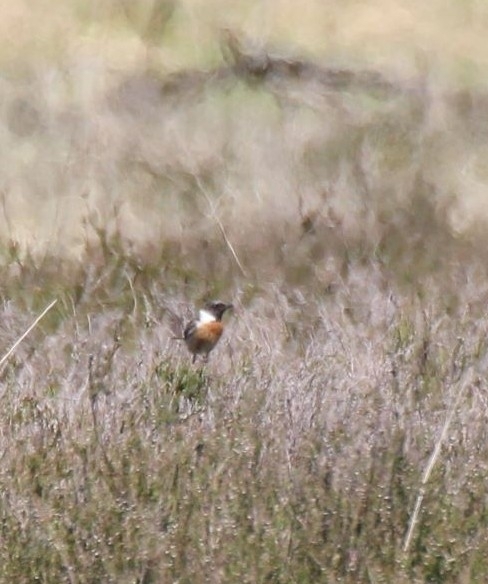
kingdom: Animalia
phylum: Chordata
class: Aves
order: Passeriformes
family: Muscicapidae
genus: Saxicola
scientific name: Saxicola rubicola
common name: European stonechat
